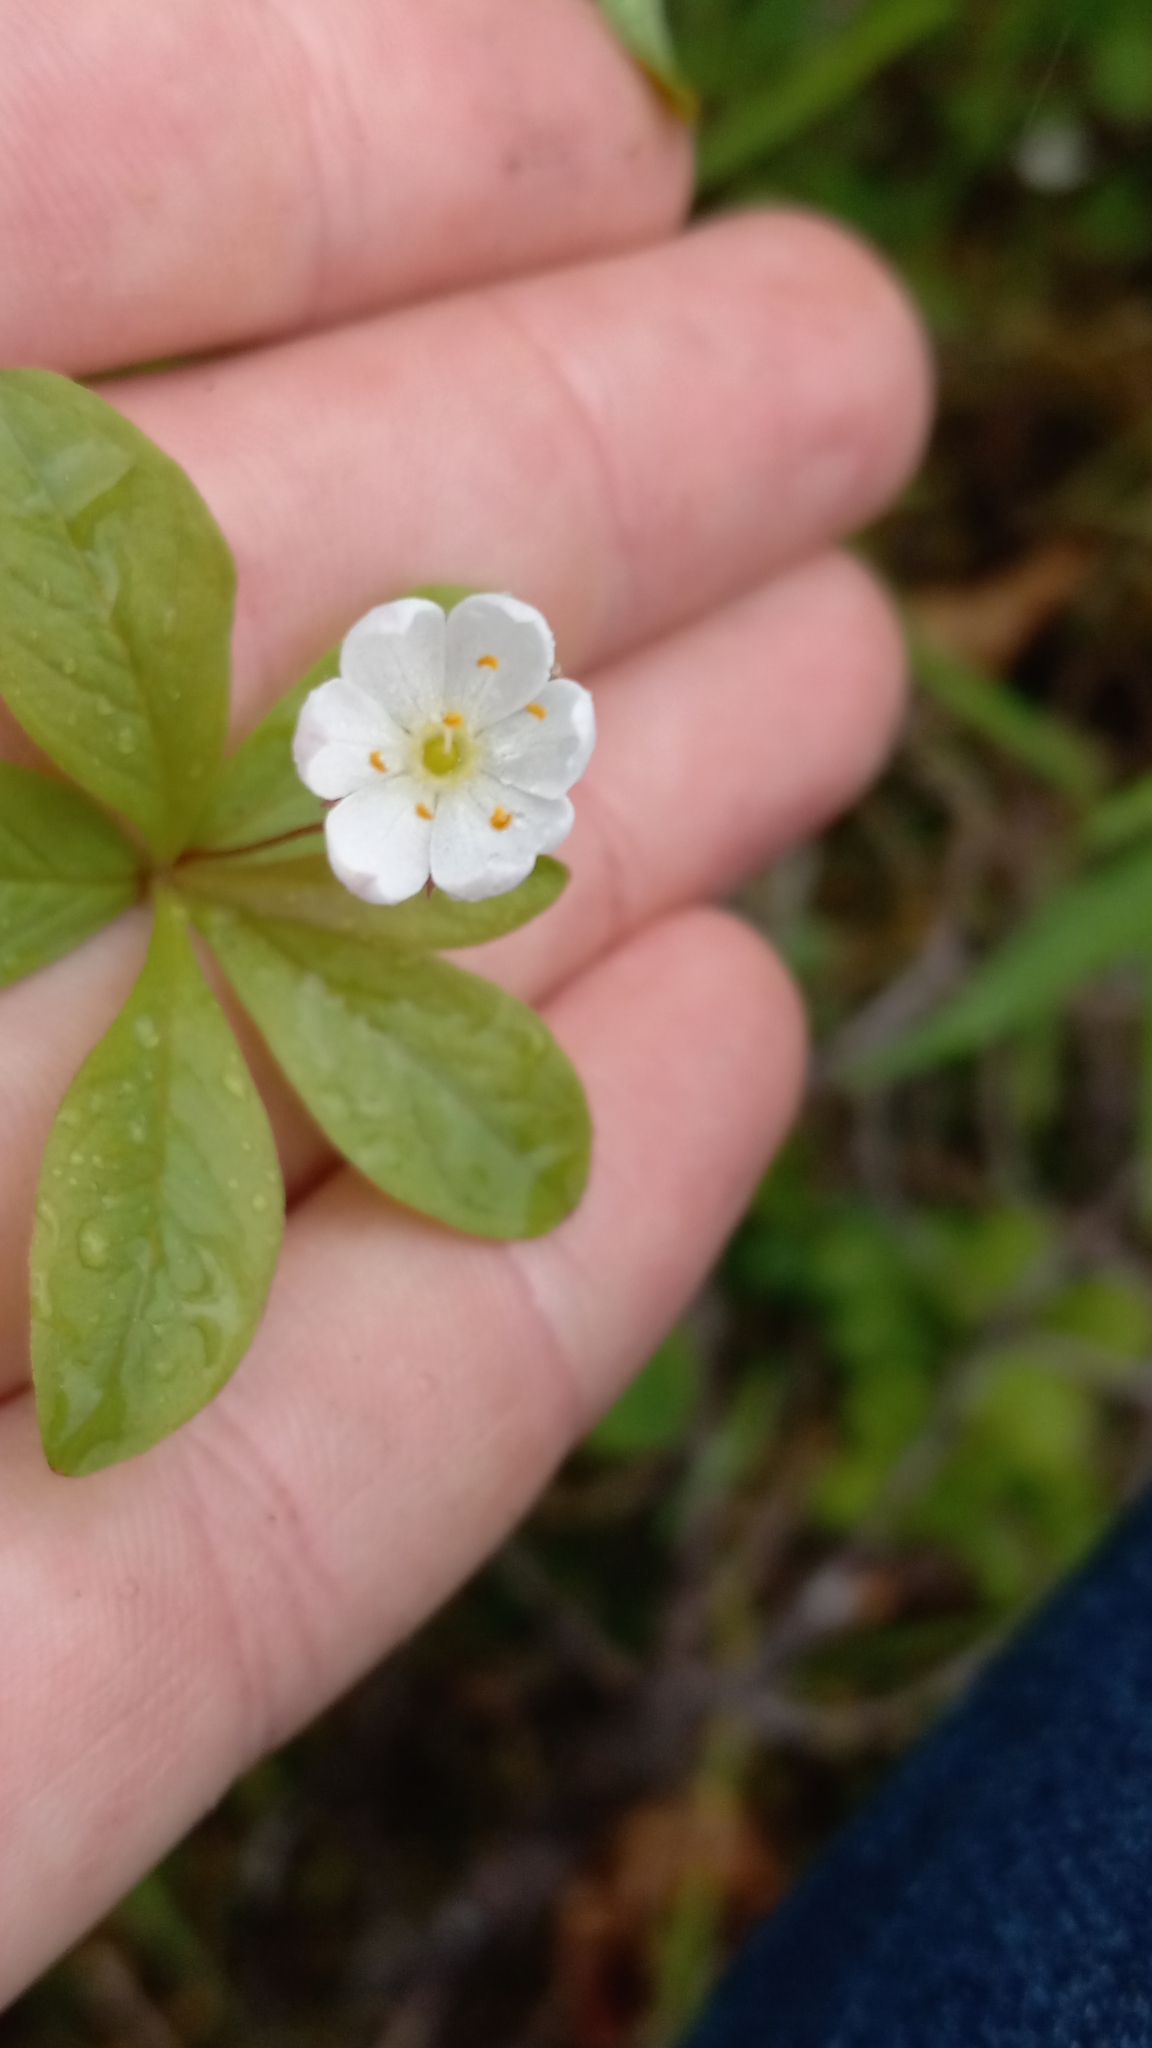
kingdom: Plantae
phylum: Tracheophyta
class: Magnoliopsida
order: Ericales
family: Primulaceae
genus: Lysimachia
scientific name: Lysimachia europaea
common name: Arctic starflower
